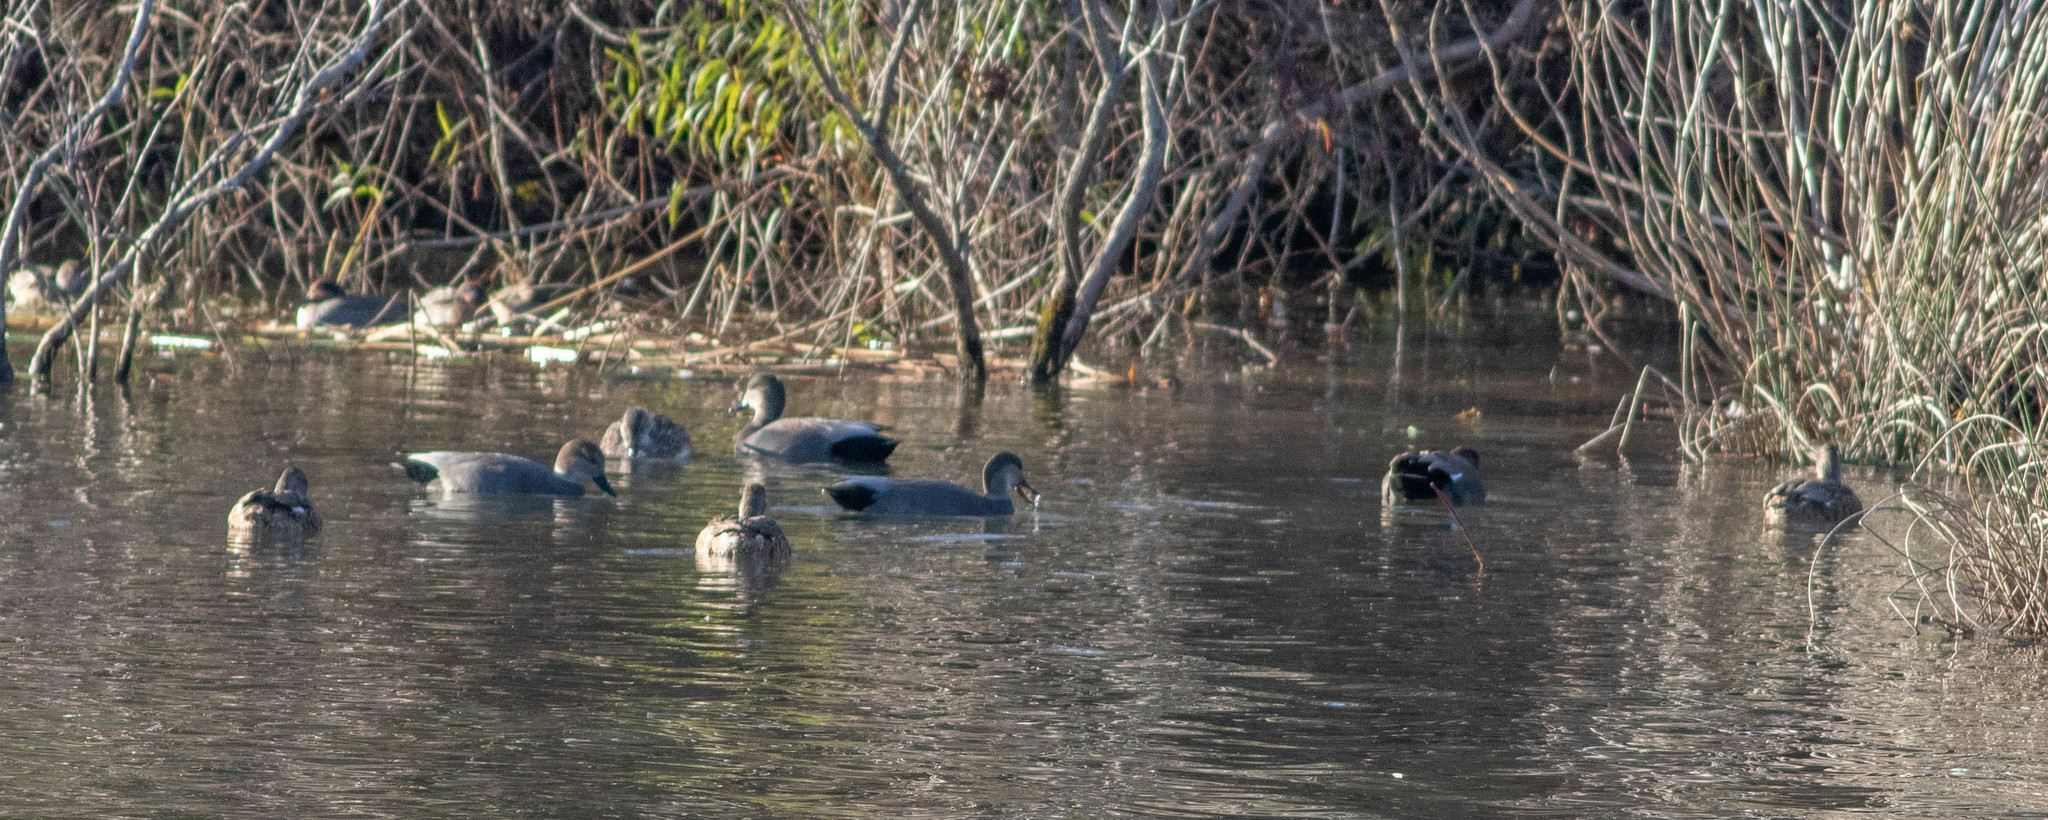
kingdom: Animalia
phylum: Chordata
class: Aves
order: Anseriformes
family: Anatidae
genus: Mareca
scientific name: Mareca strepera
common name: Gadwall
